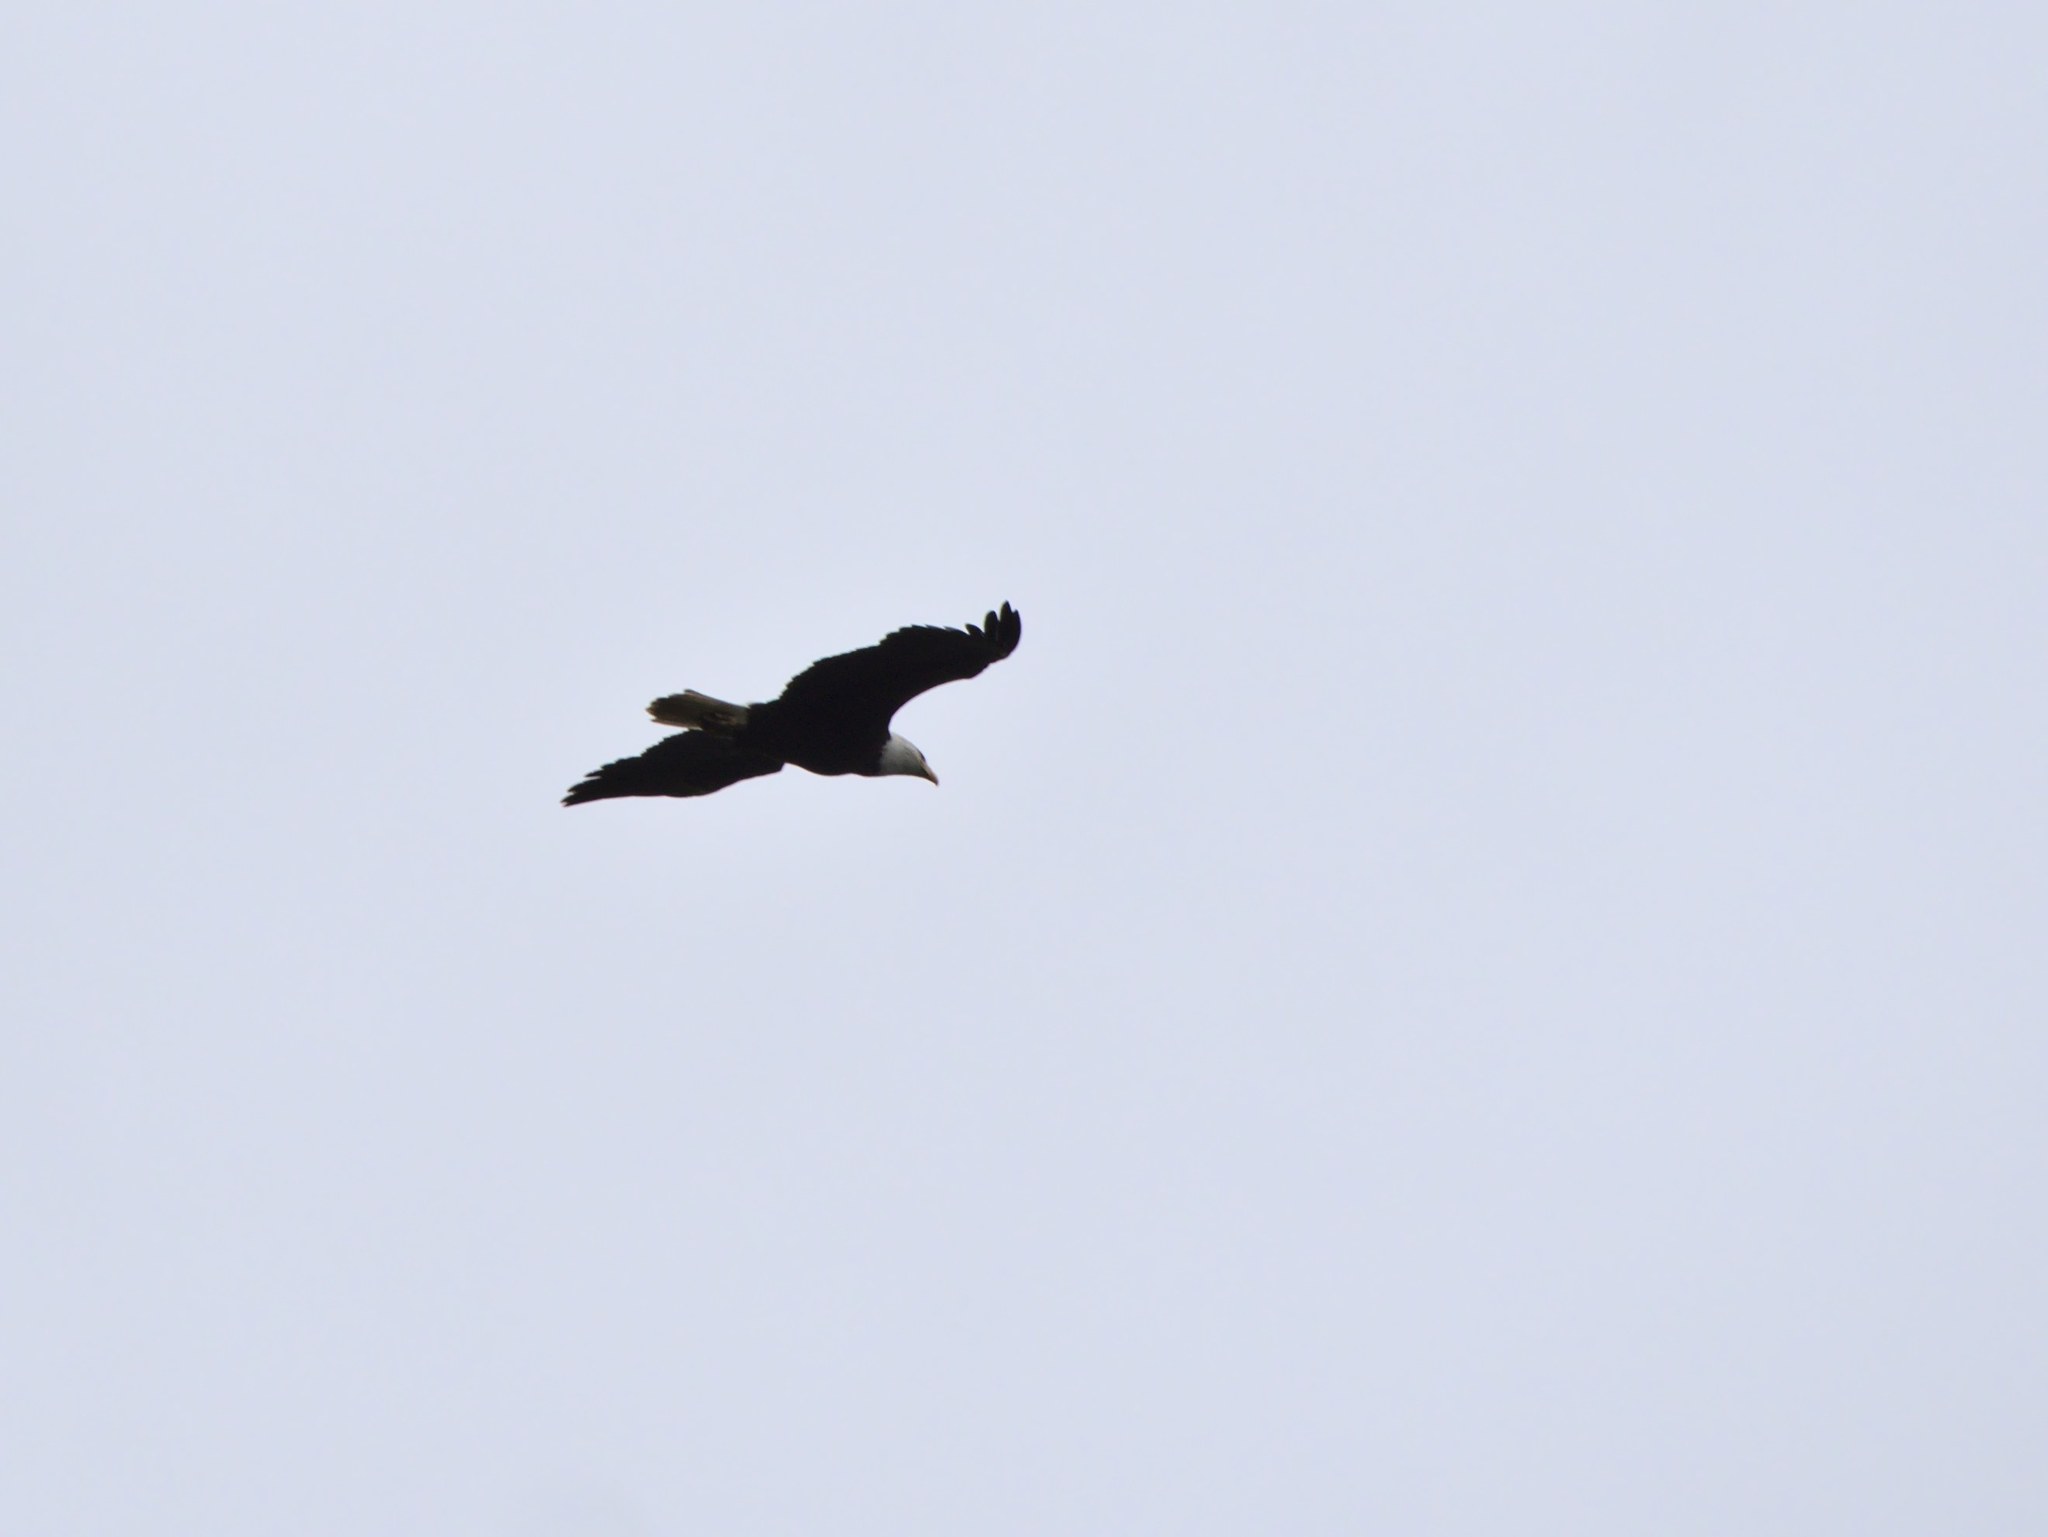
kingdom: Animalia
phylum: Chordata
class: Aves
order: Accipitriformes
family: Accipitridae
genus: Haliaeetus
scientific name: Haliaeetus leucocephalus
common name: Bald eagle
